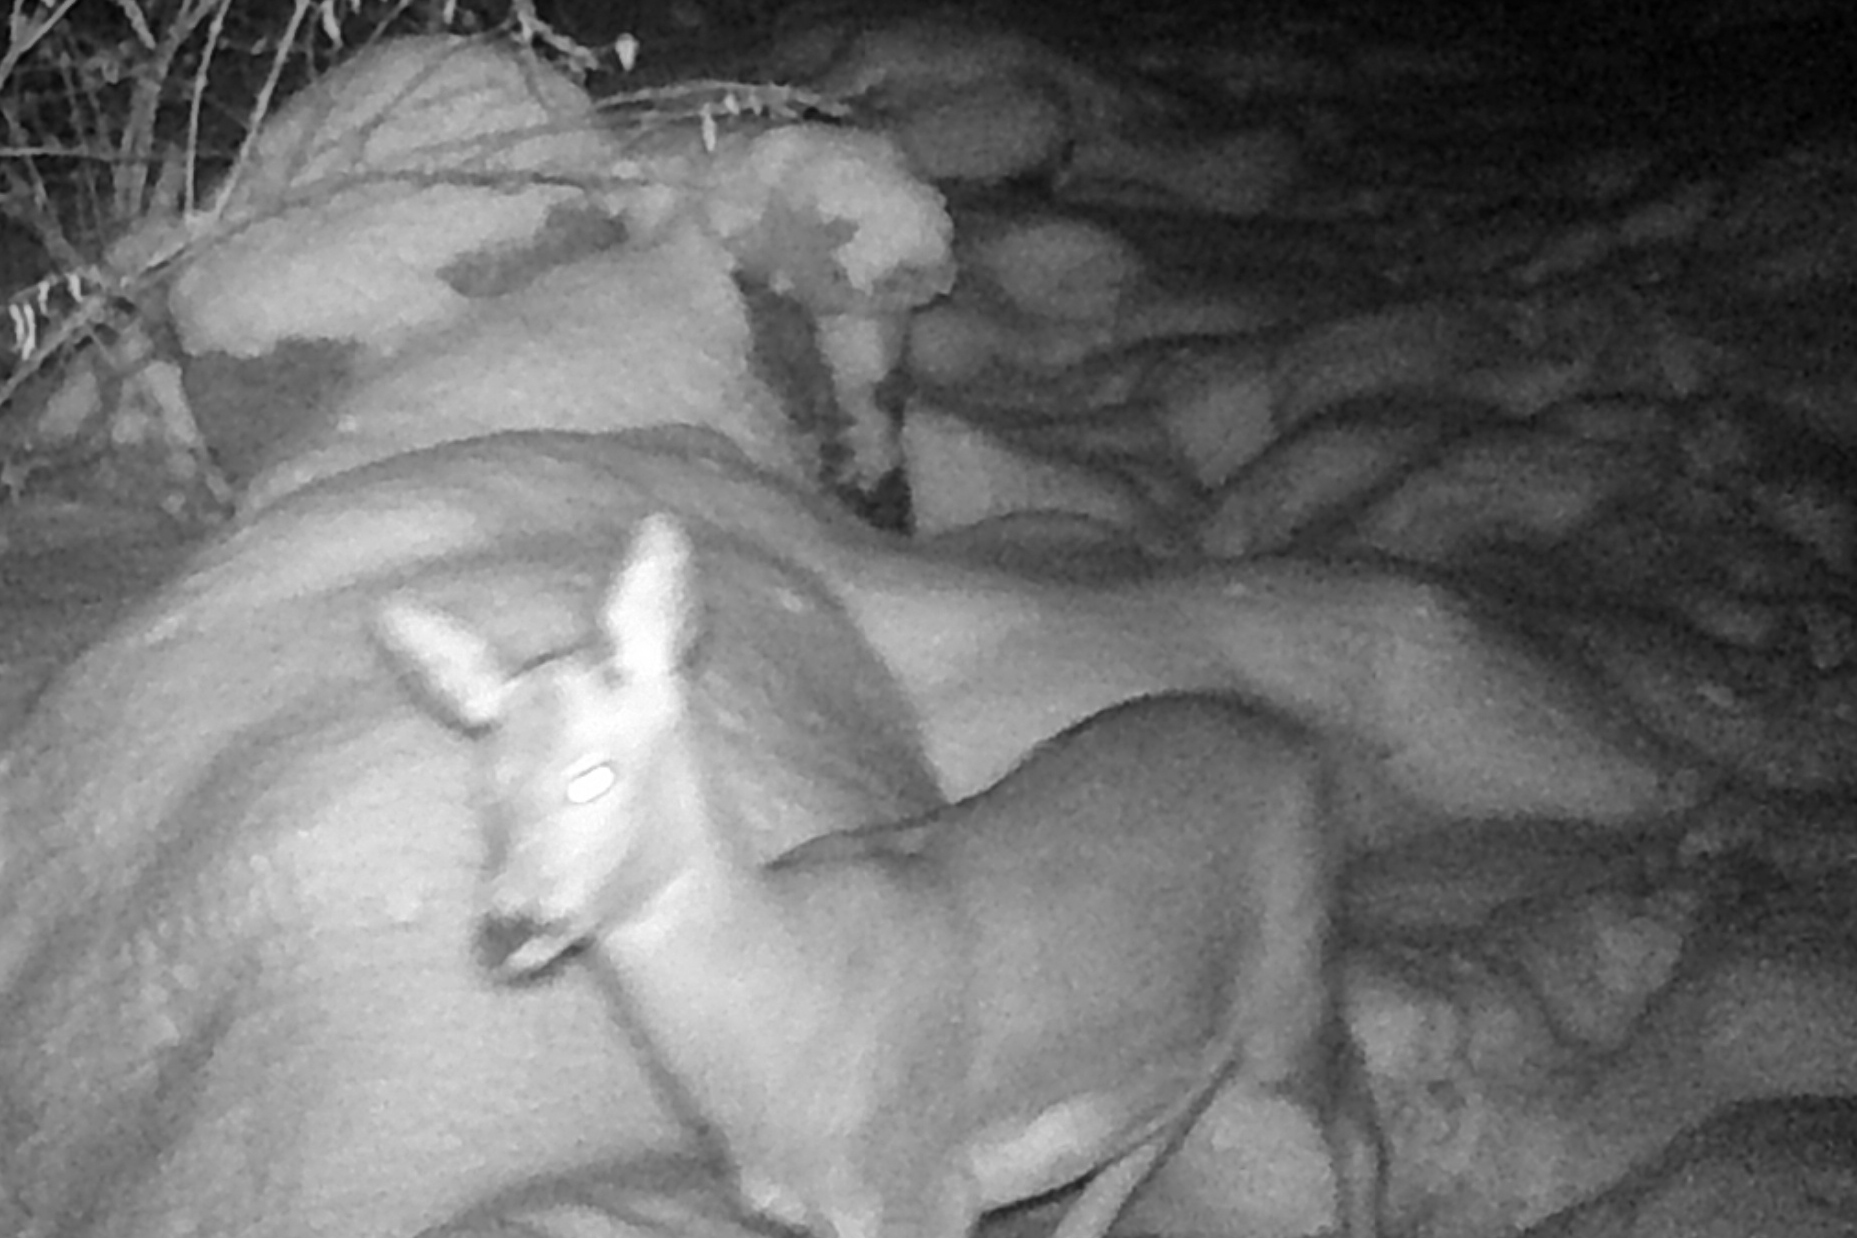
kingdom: Animalia
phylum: Chordata
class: Mammalia
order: Artiodactyla
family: Cervidae
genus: Capreolus
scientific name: Capreolus capreolus
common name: Western roe deer
